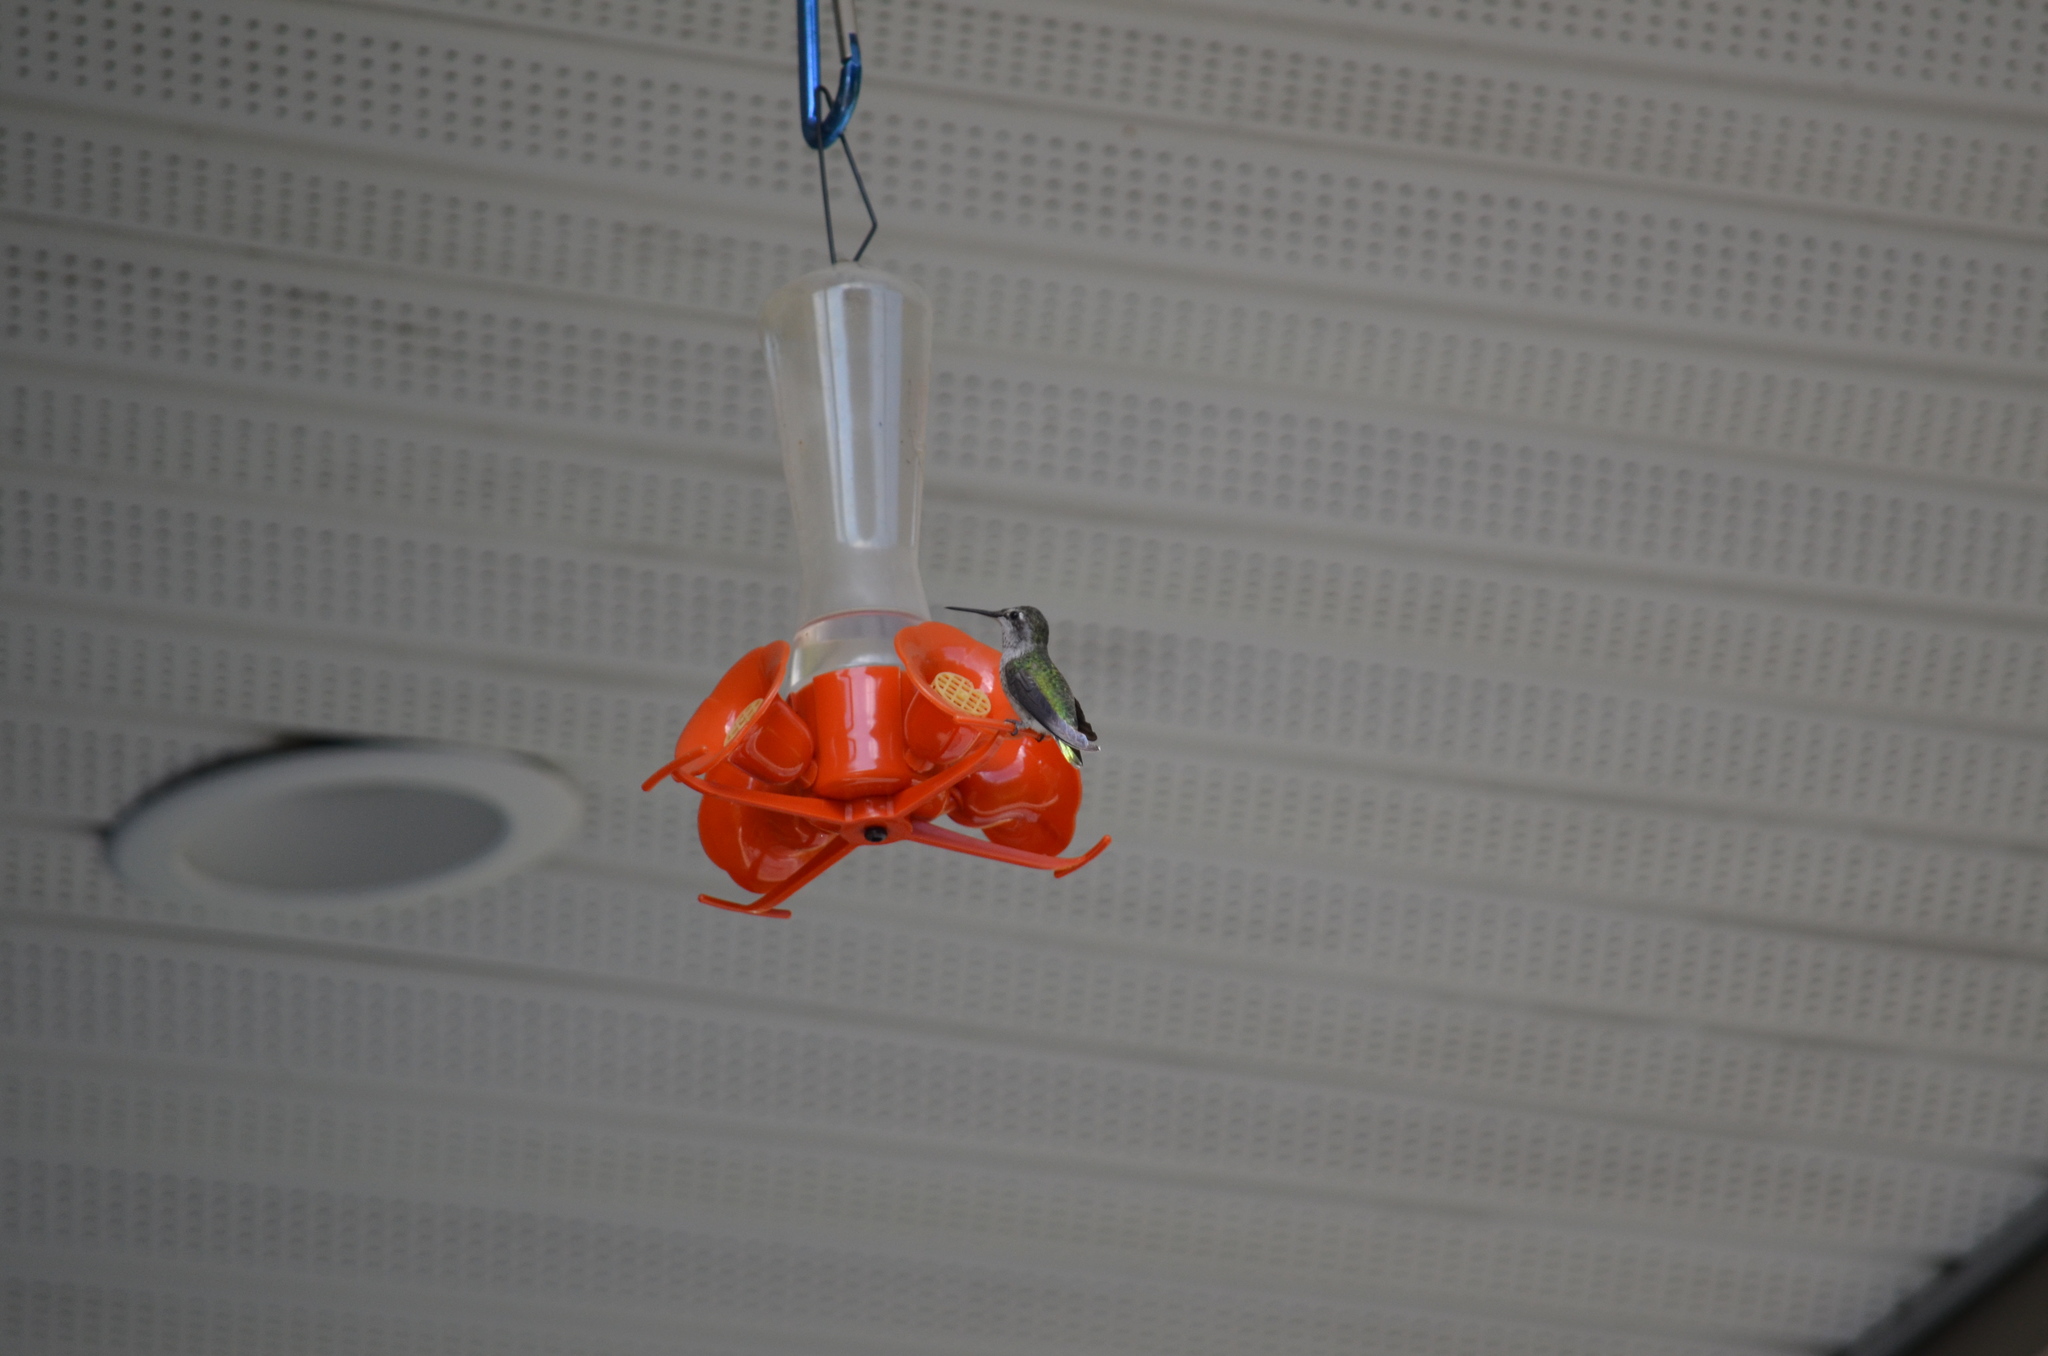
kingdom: Animalia
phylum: Chordata
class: Aves
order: Apodiformes
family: Trochilidae
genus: Calypte
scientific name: Calypte anna
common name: Anna's hummingbird
